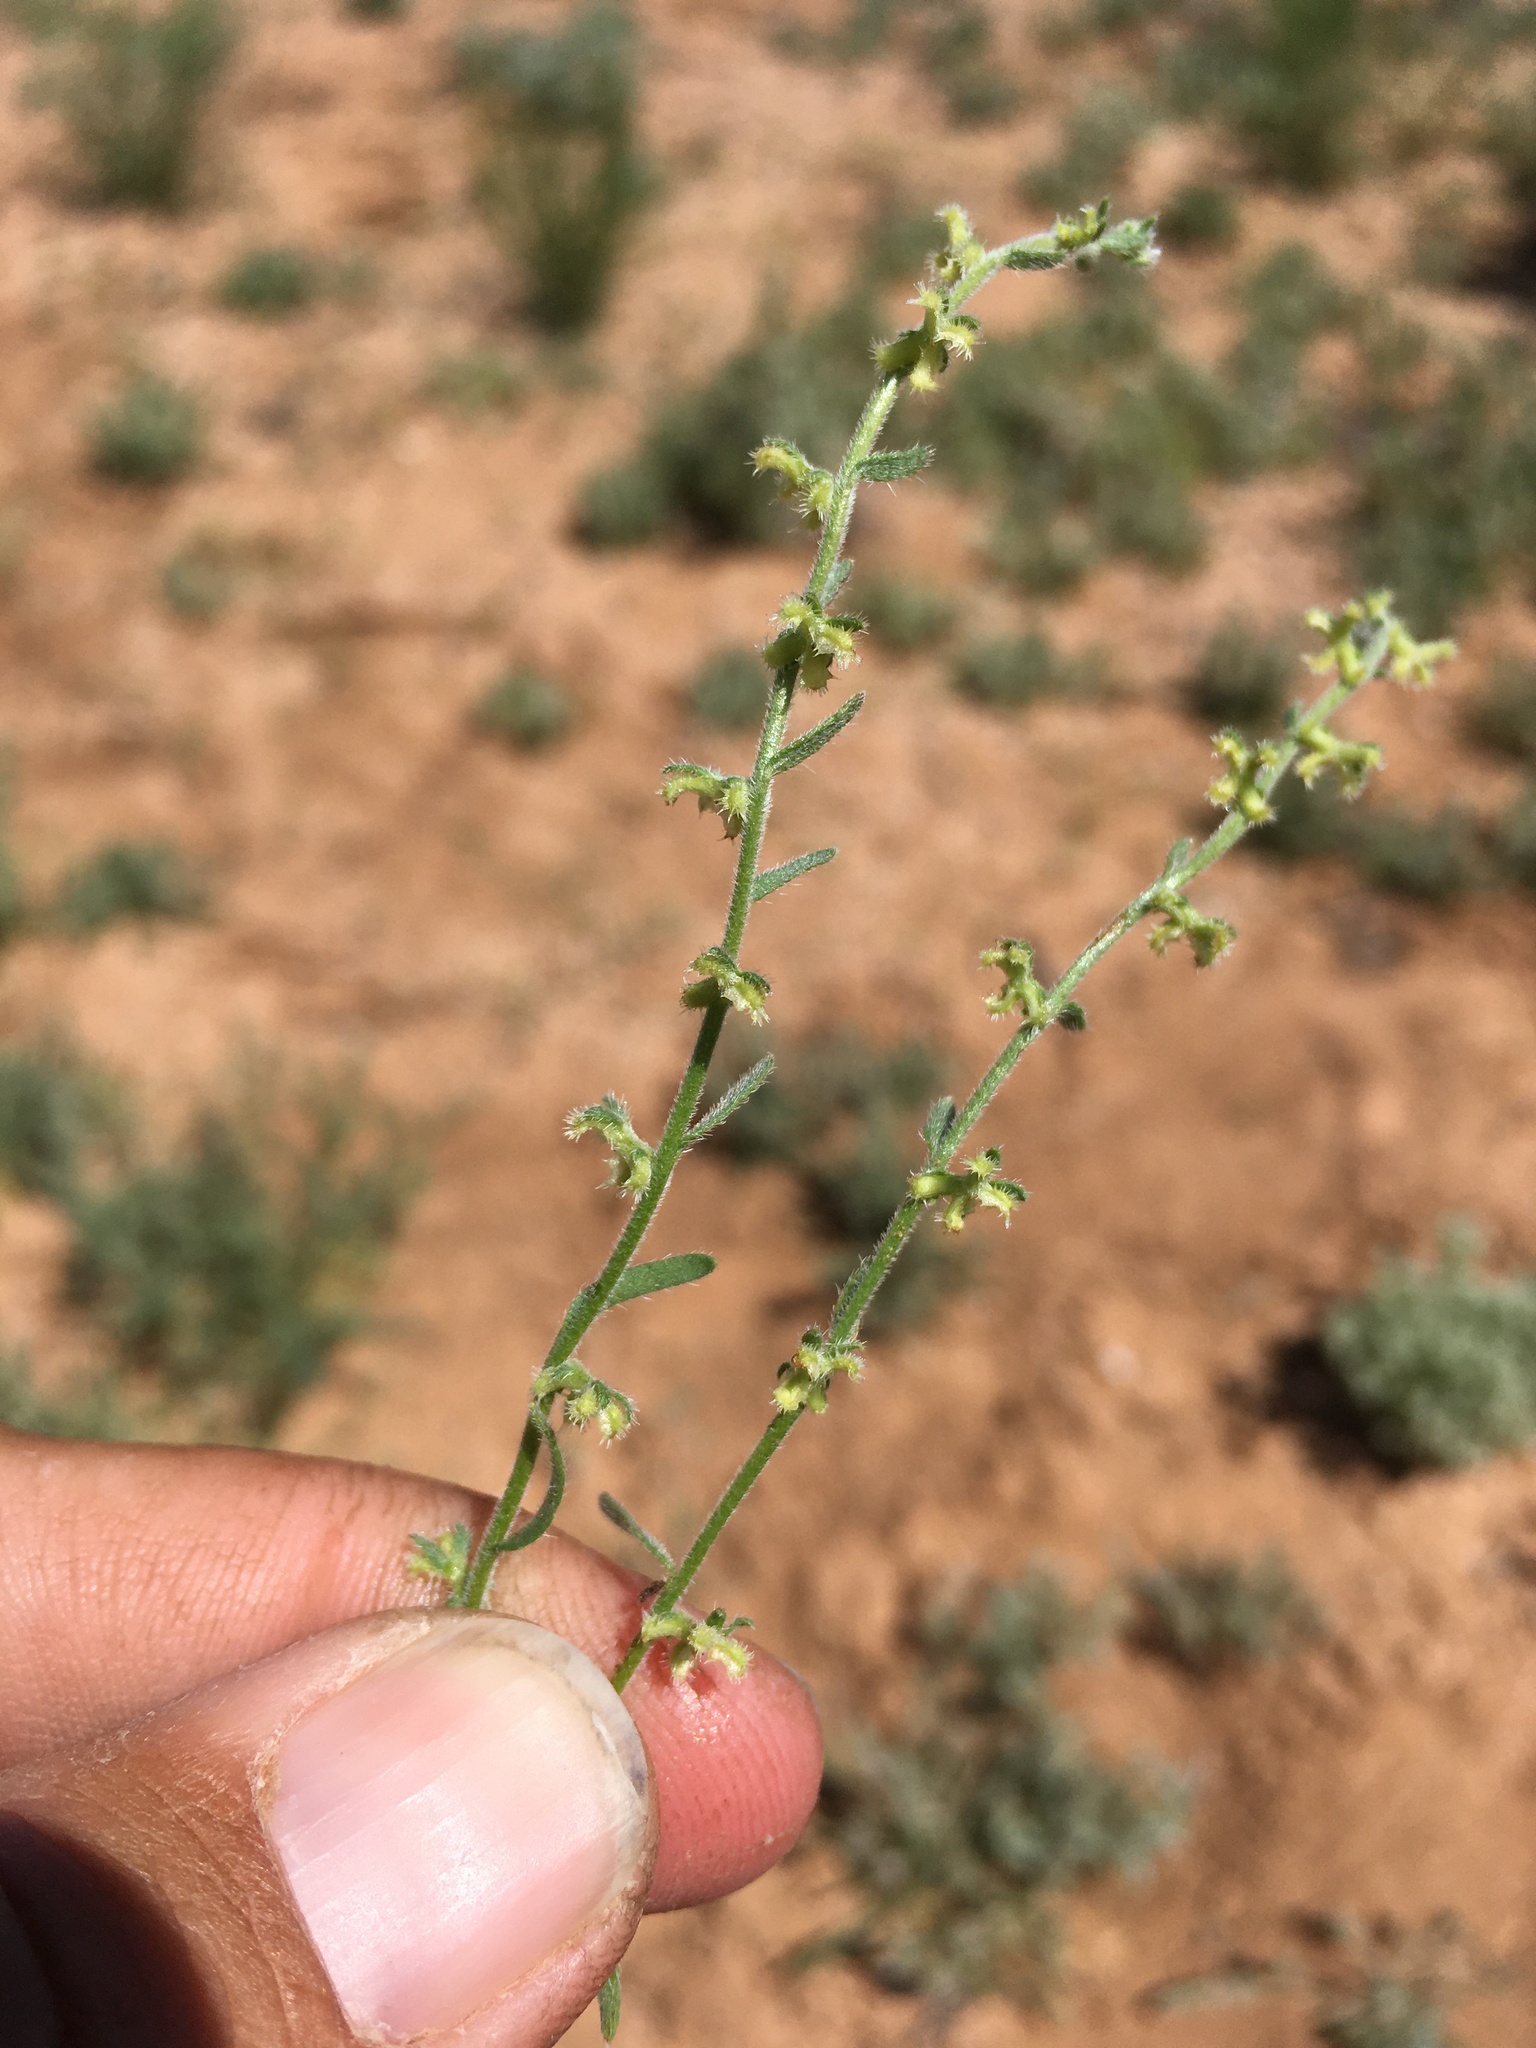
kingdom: Plantae
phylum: Tracheophyta
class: Magnoliopsida
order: Boraginales
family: Boraginaceae
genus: Pectocarya
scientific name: Pectocarya heterocarpa
